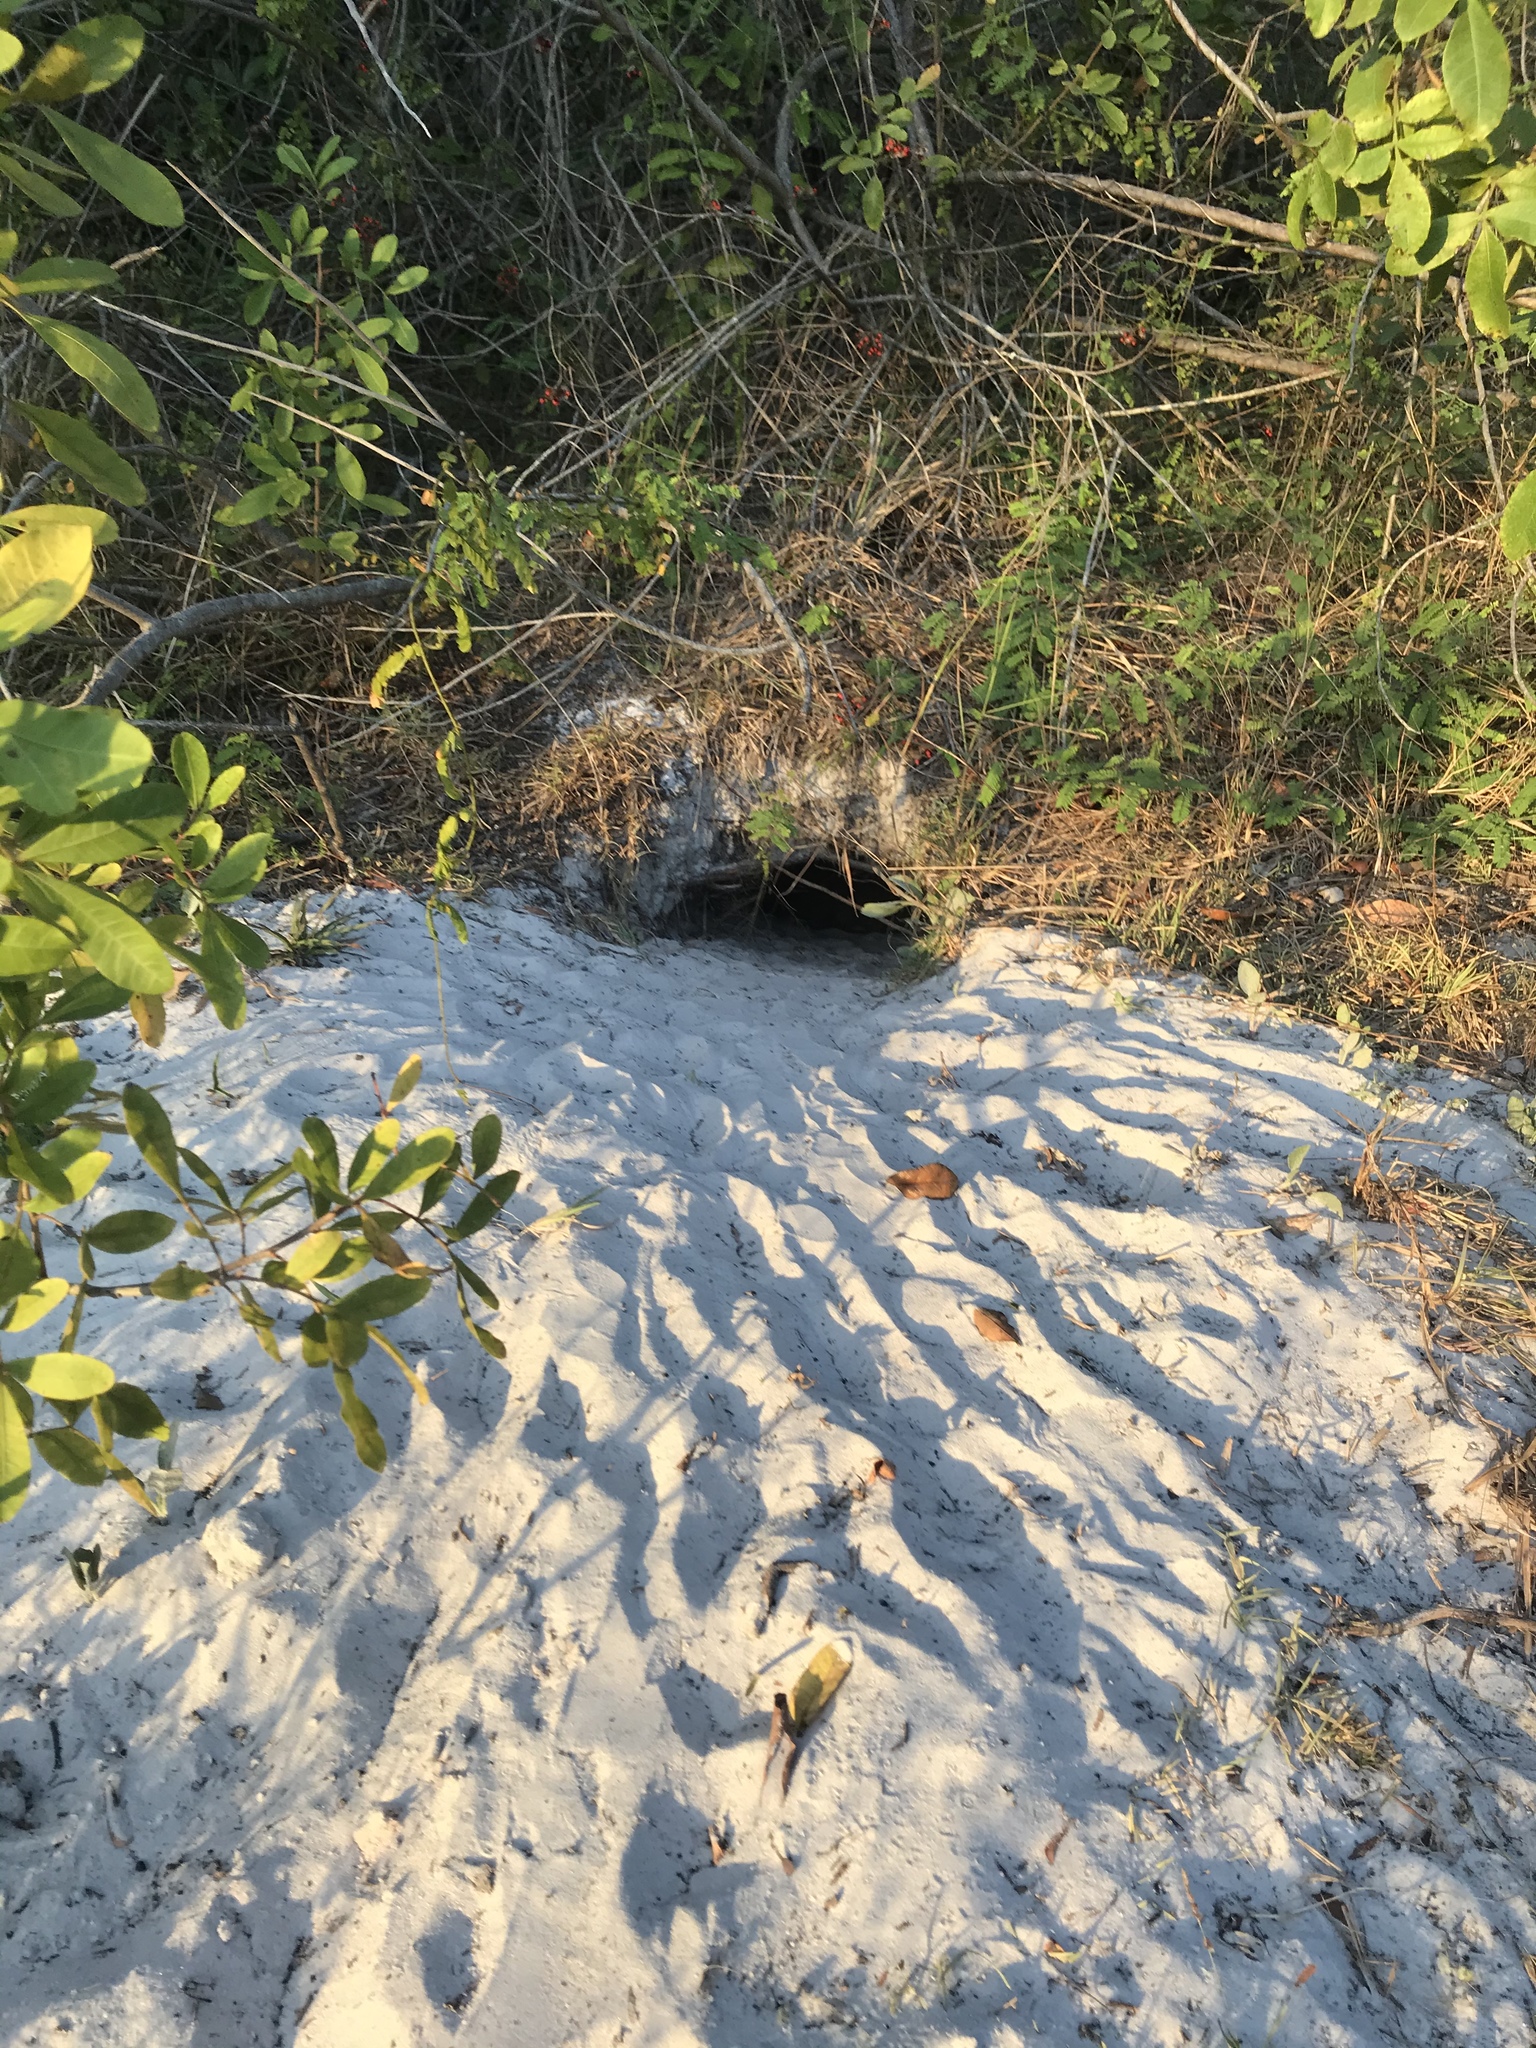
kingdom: Animalia
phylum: Chordata
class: Testudines
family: Testudinidae
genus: Gopherus
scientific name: Gopherus polyphemus
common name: Florida gopher tortoise
